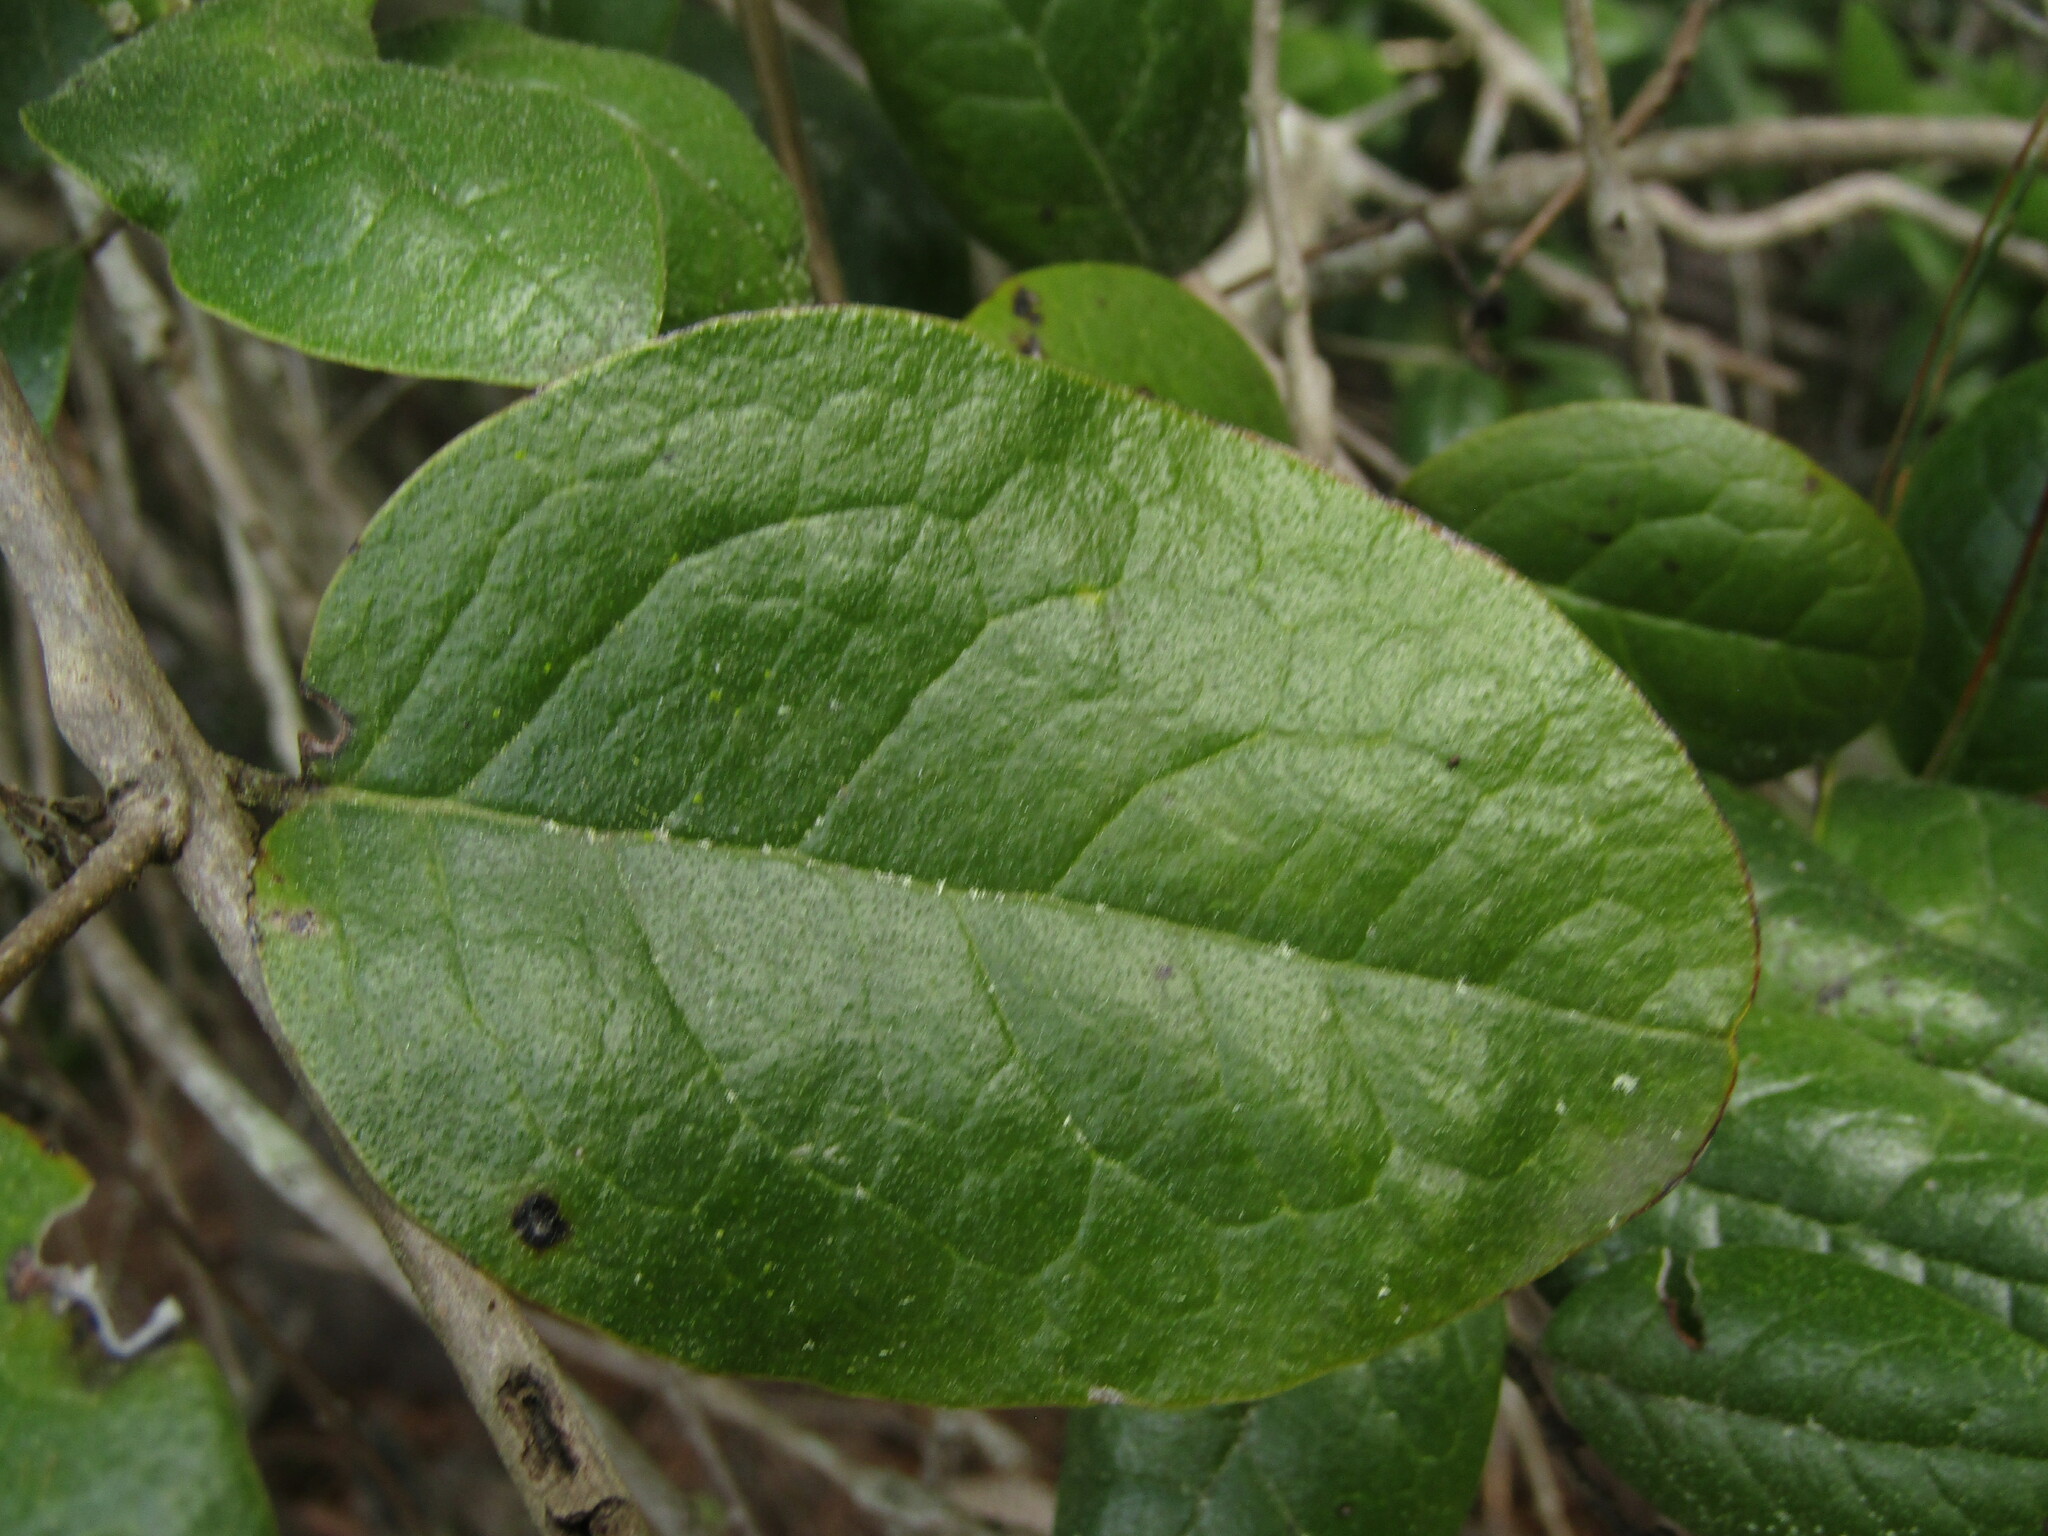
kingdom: Plantae
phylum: Tracheophyta
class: Magnoliopsida
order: Laurales
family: Monimiaceae
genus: Peumus
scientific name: Peumus boldus
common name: Boldo
